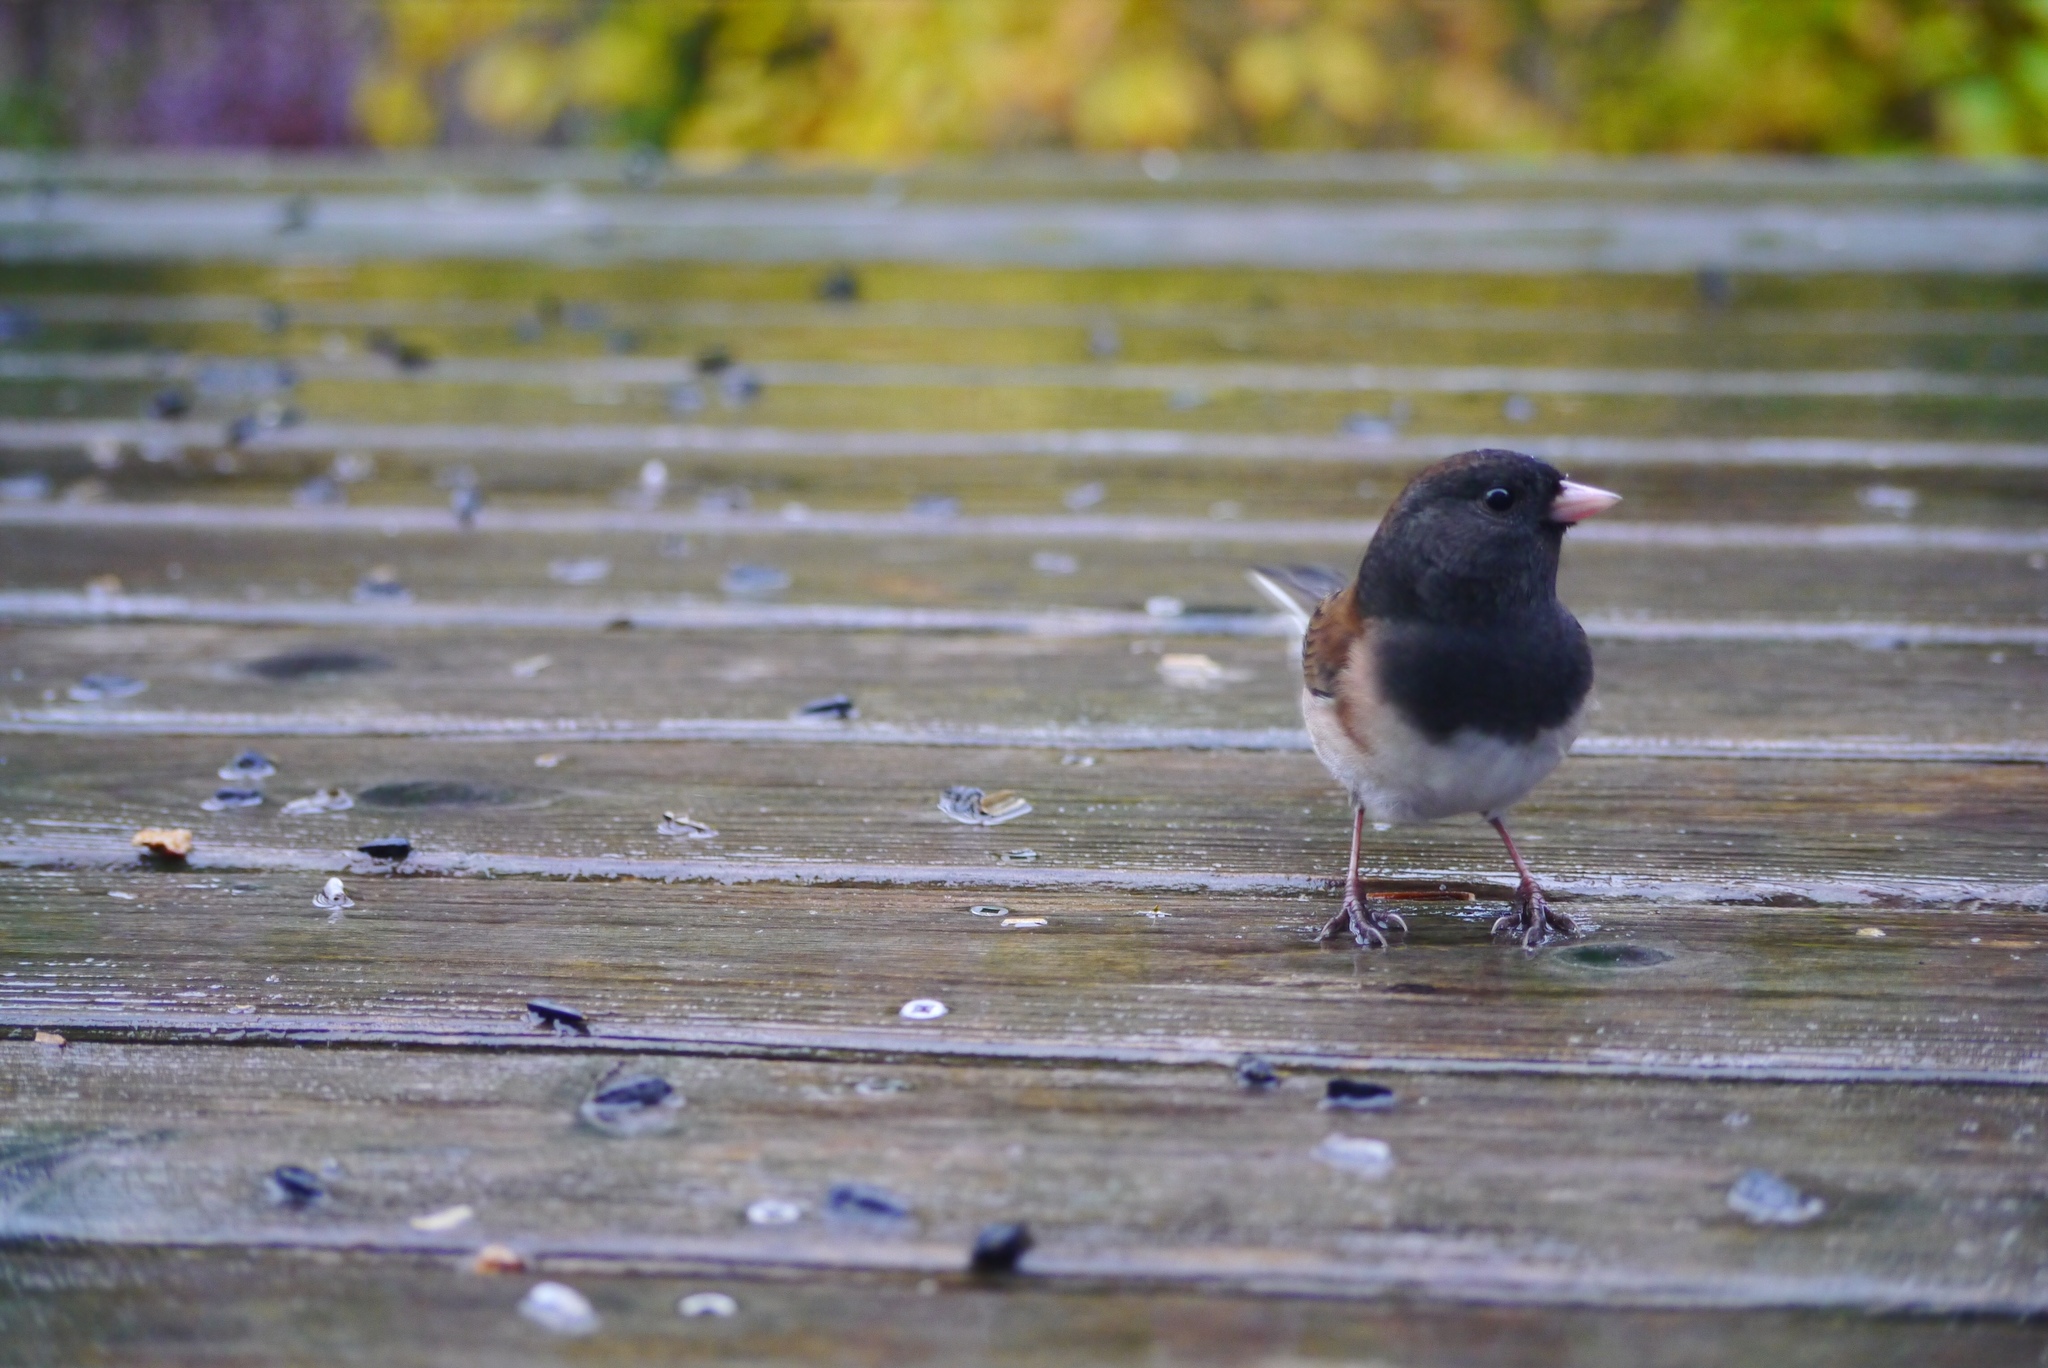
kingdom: Animalia
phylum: Chordata
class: Aves
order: Passeriformes
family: Passerellidae
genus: Junco
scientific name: Junco hyemalis
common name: Dark-eyed junco
